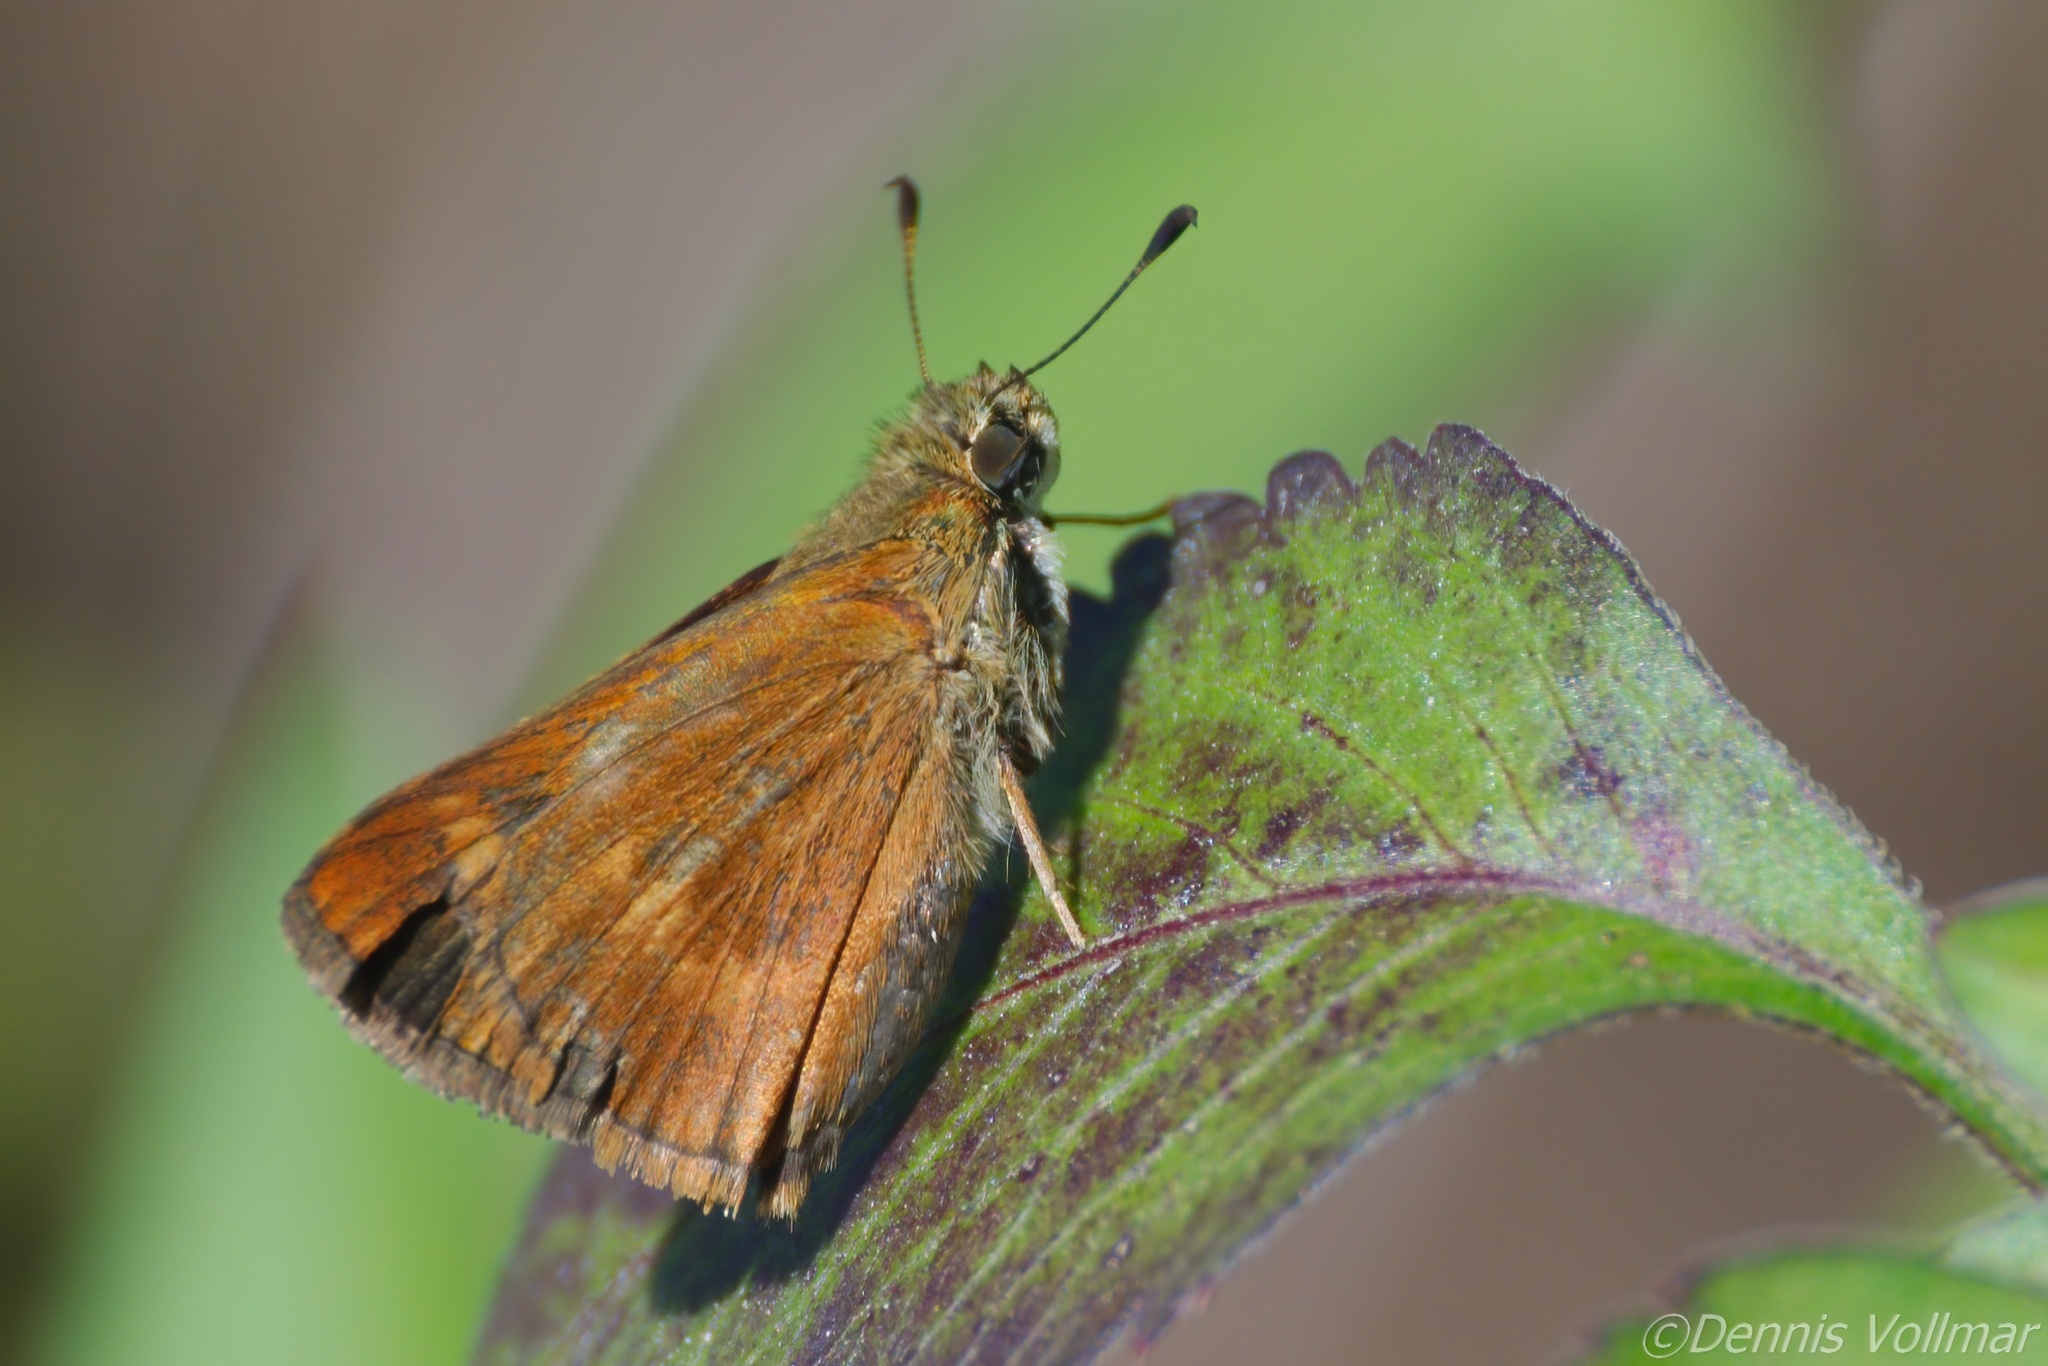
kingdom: Animalia
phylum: Arthropoda
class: Insecta
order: Lepidoptera
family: Hesperiidae
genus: Polites
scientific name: Polites otho
